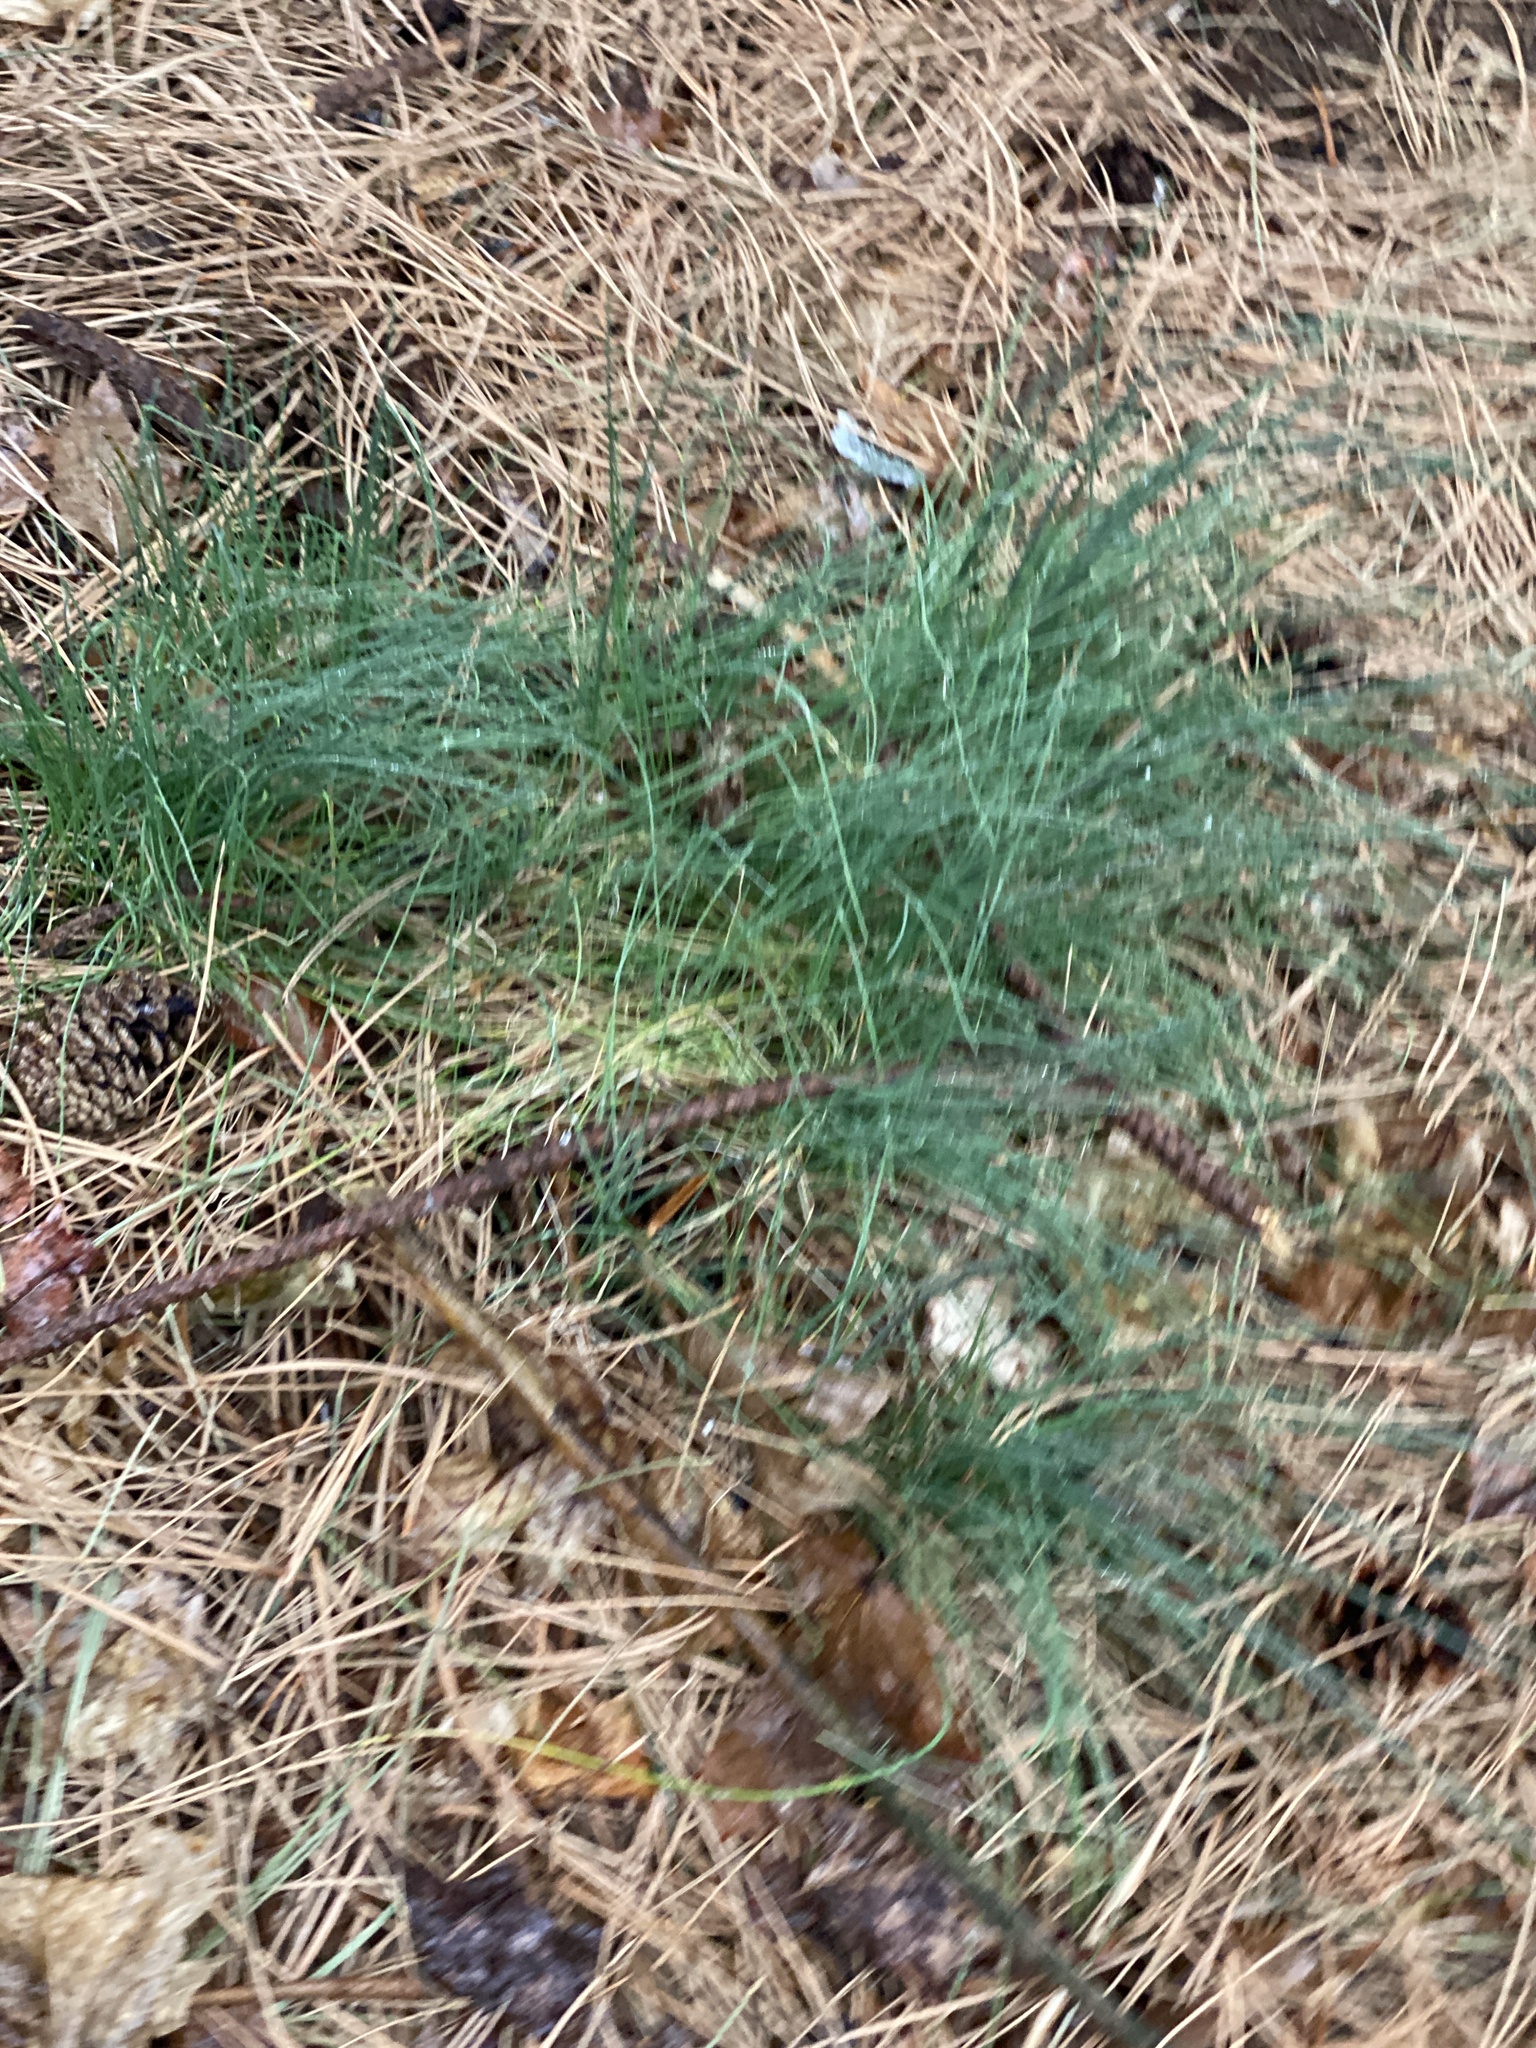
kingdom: Plantae
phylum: Tracheophyta
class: Liliopsida
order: Asparagales
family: Amaryllidaceae
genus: Allium
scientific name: Allium vineale
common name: Crow garlic
